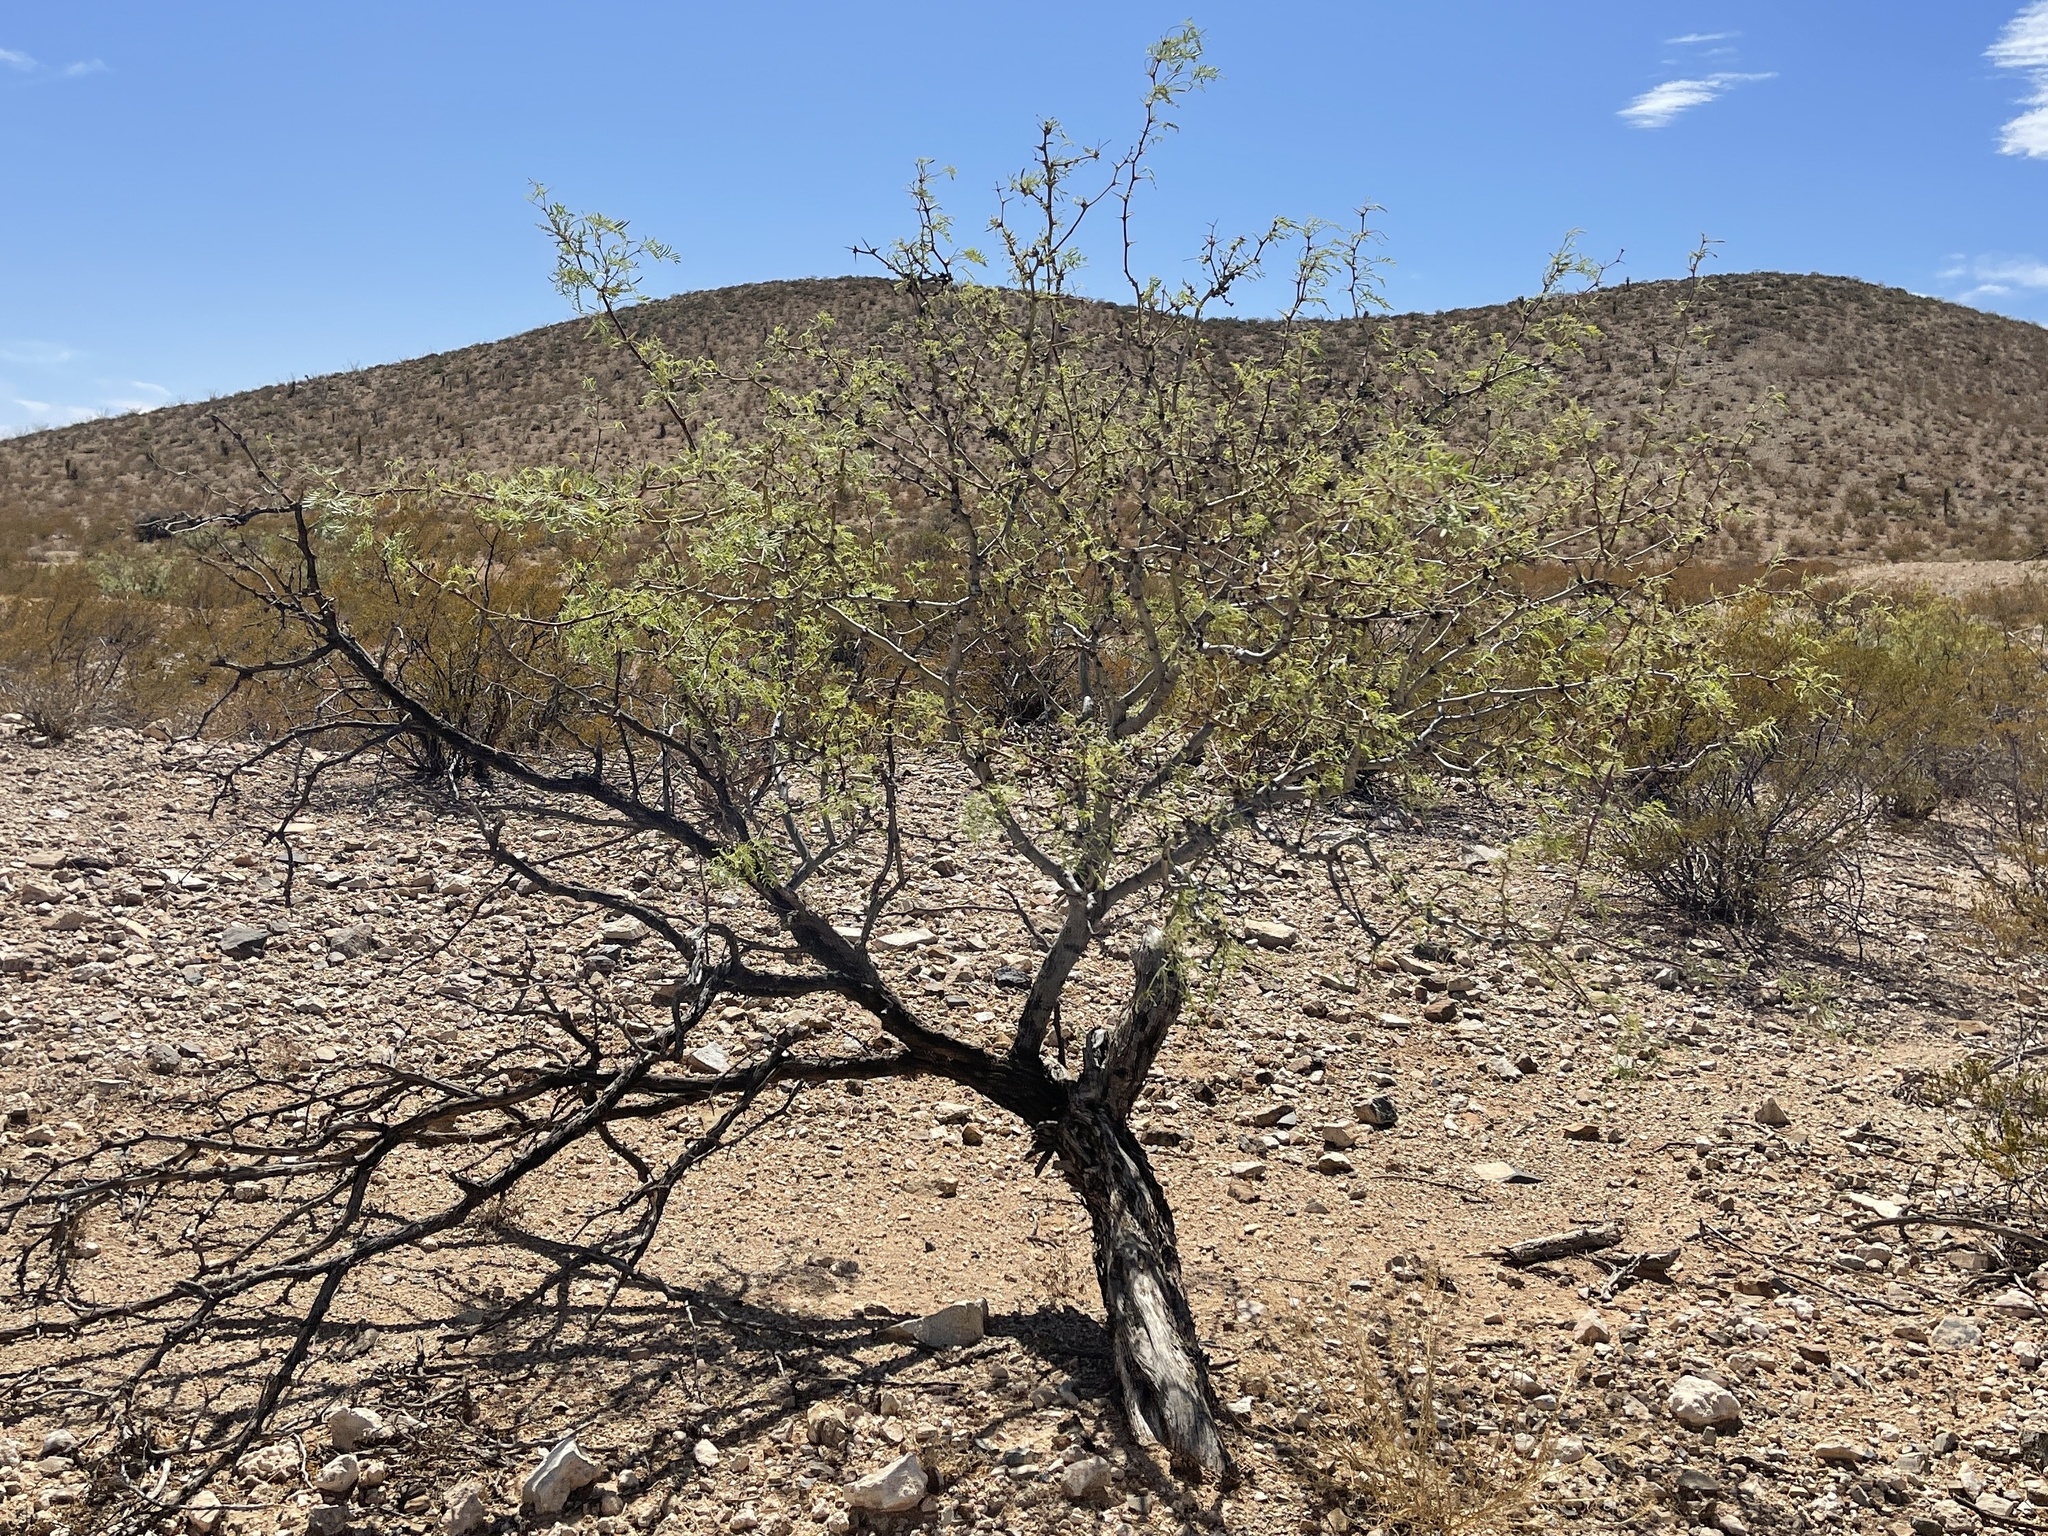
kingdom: Plantae
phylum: Tracheophyta
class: Magnoliopsida
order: Fabales
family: Fabaceae
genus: Prosopis
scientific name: Prosopis glandulosa
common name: Honey mesquite
